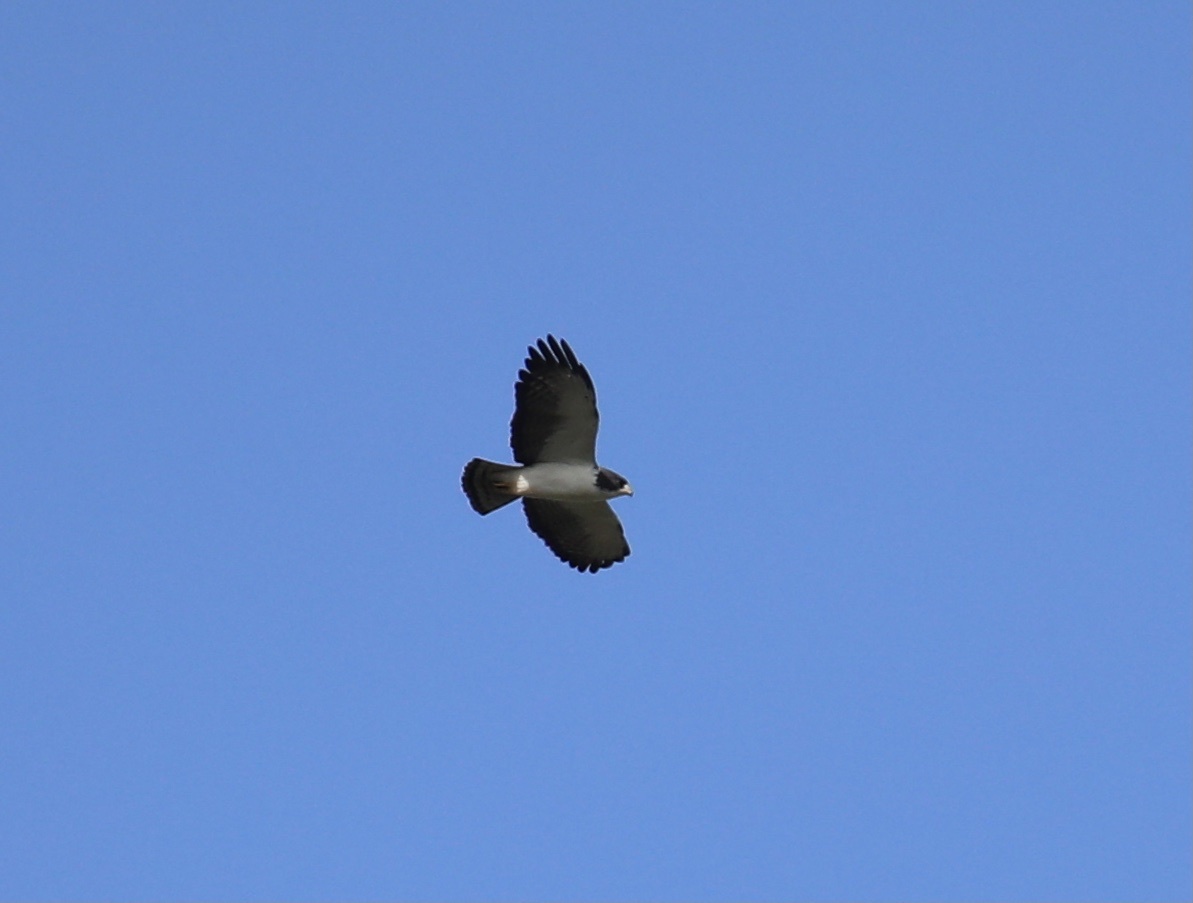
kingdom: Animalia
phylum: Chordata
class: Aves
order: Accipitriformes
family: Accipitridae
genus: Buteo
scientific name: Buteo brachyurus
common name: Short-tailed hawk
